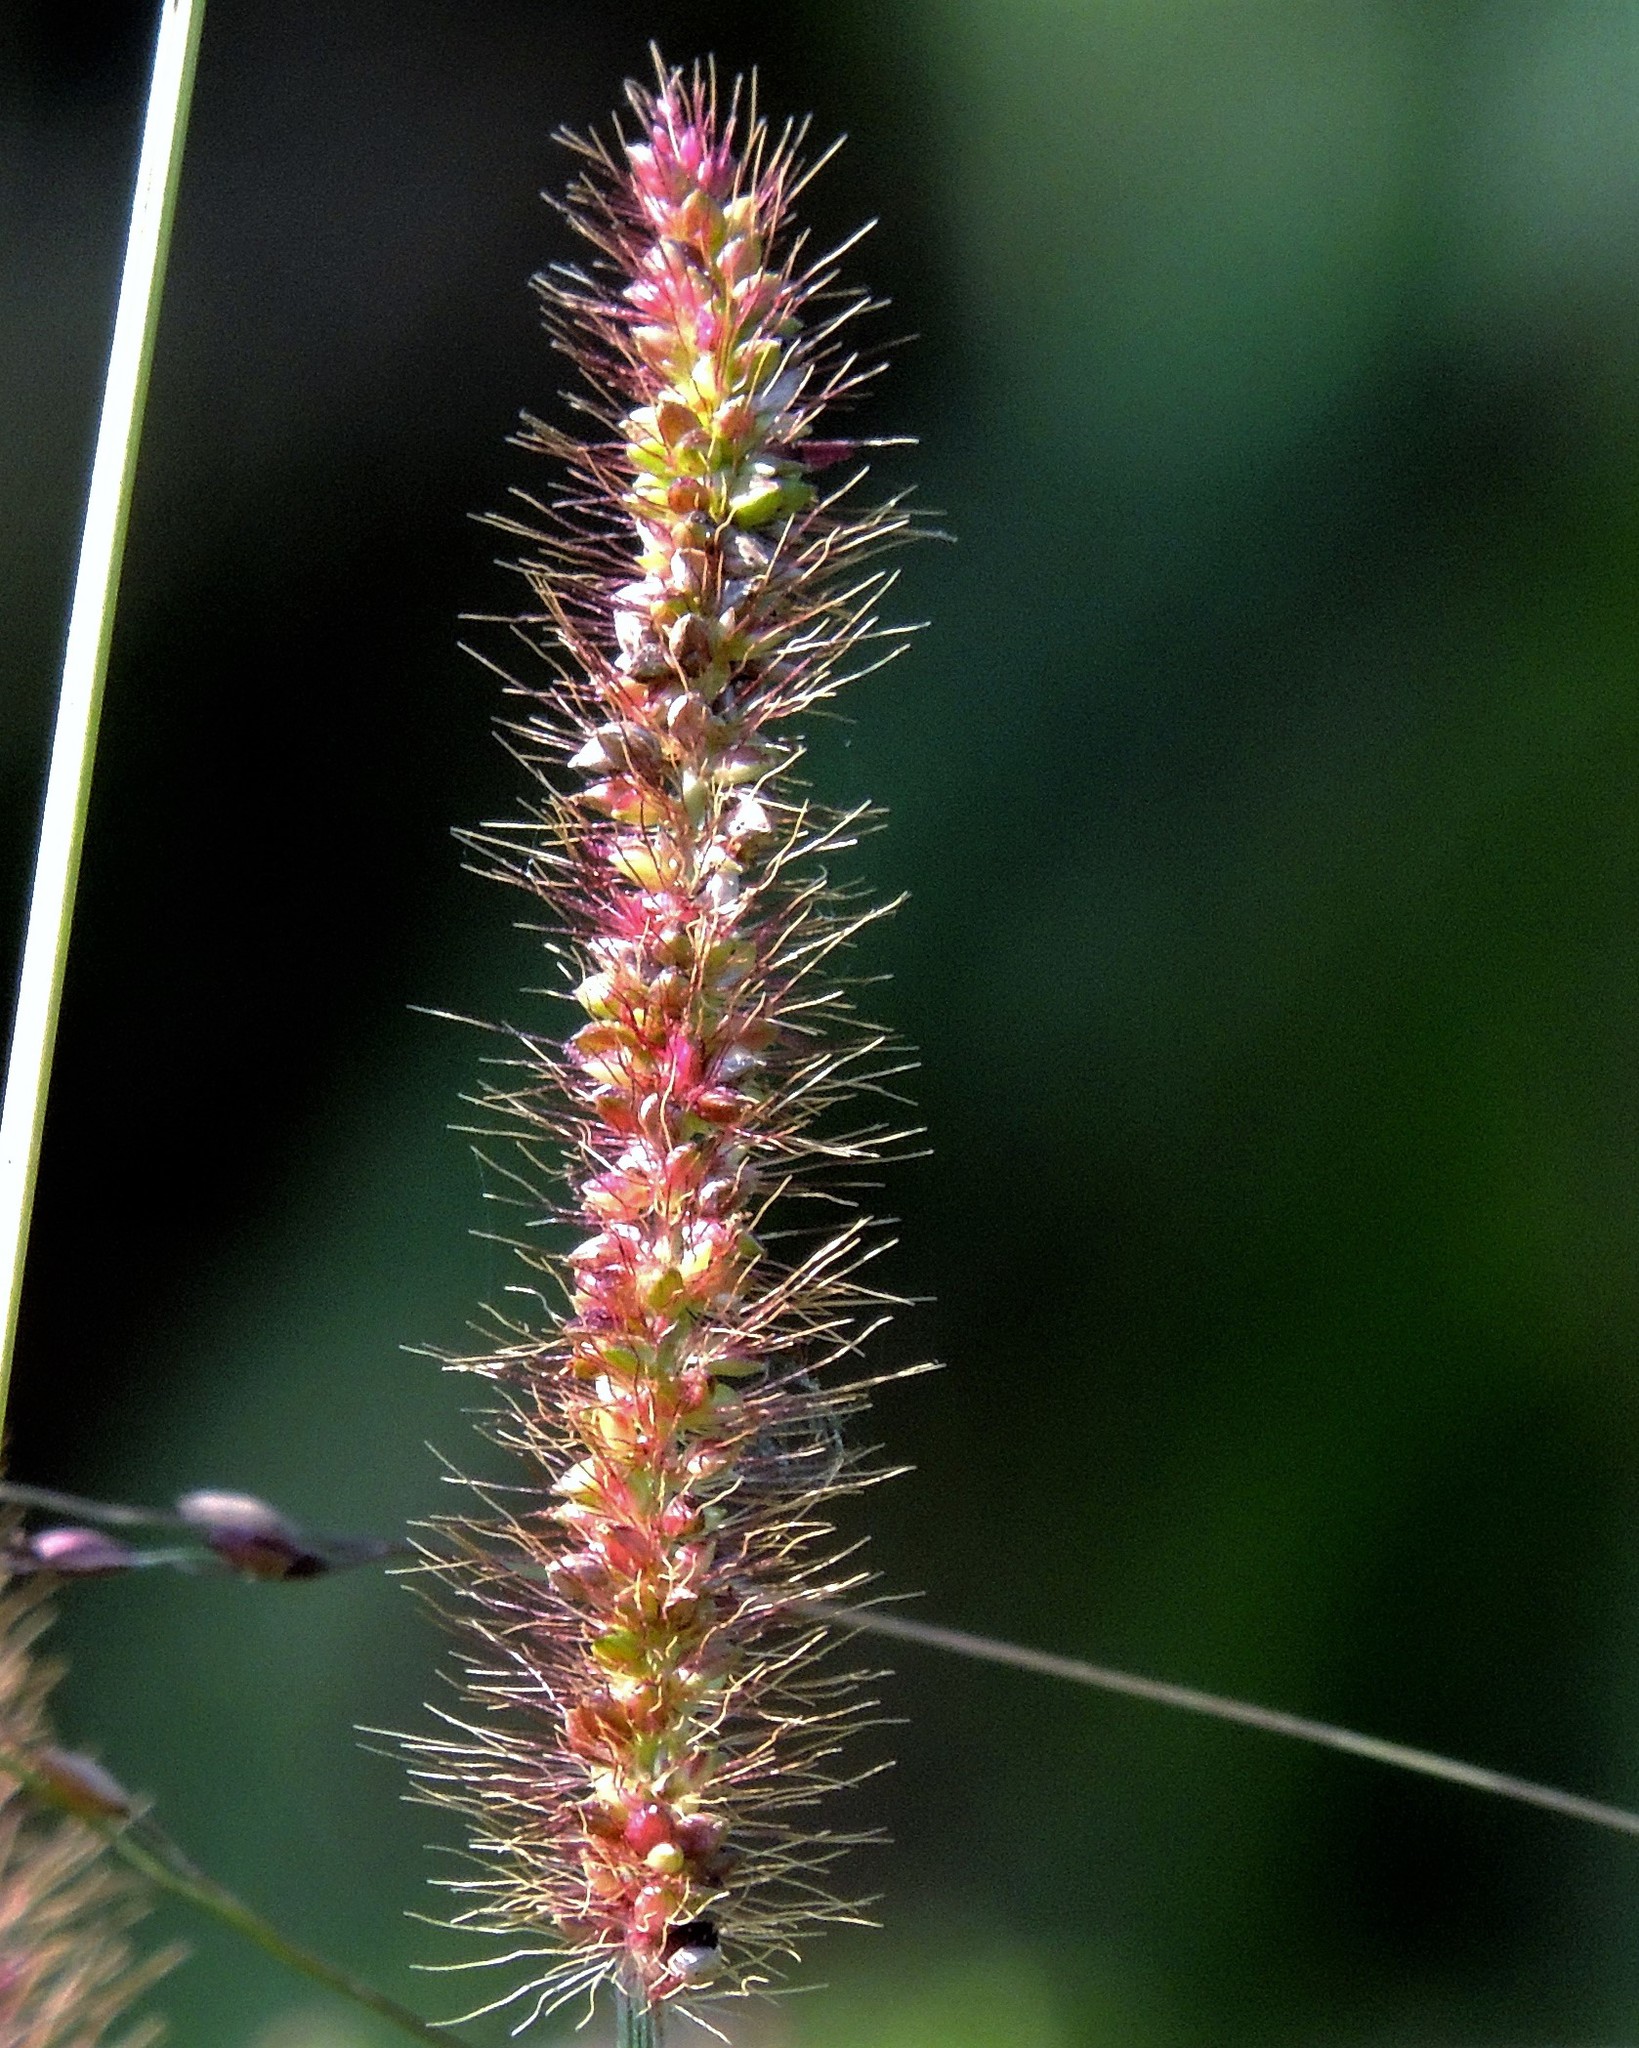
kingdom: Plantae
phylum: Tracheophyta
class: Liliopsida
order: Poales
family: Poaceae
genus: Setaria
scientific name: Setaria parviflora
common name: Knotroot bristle-grass
